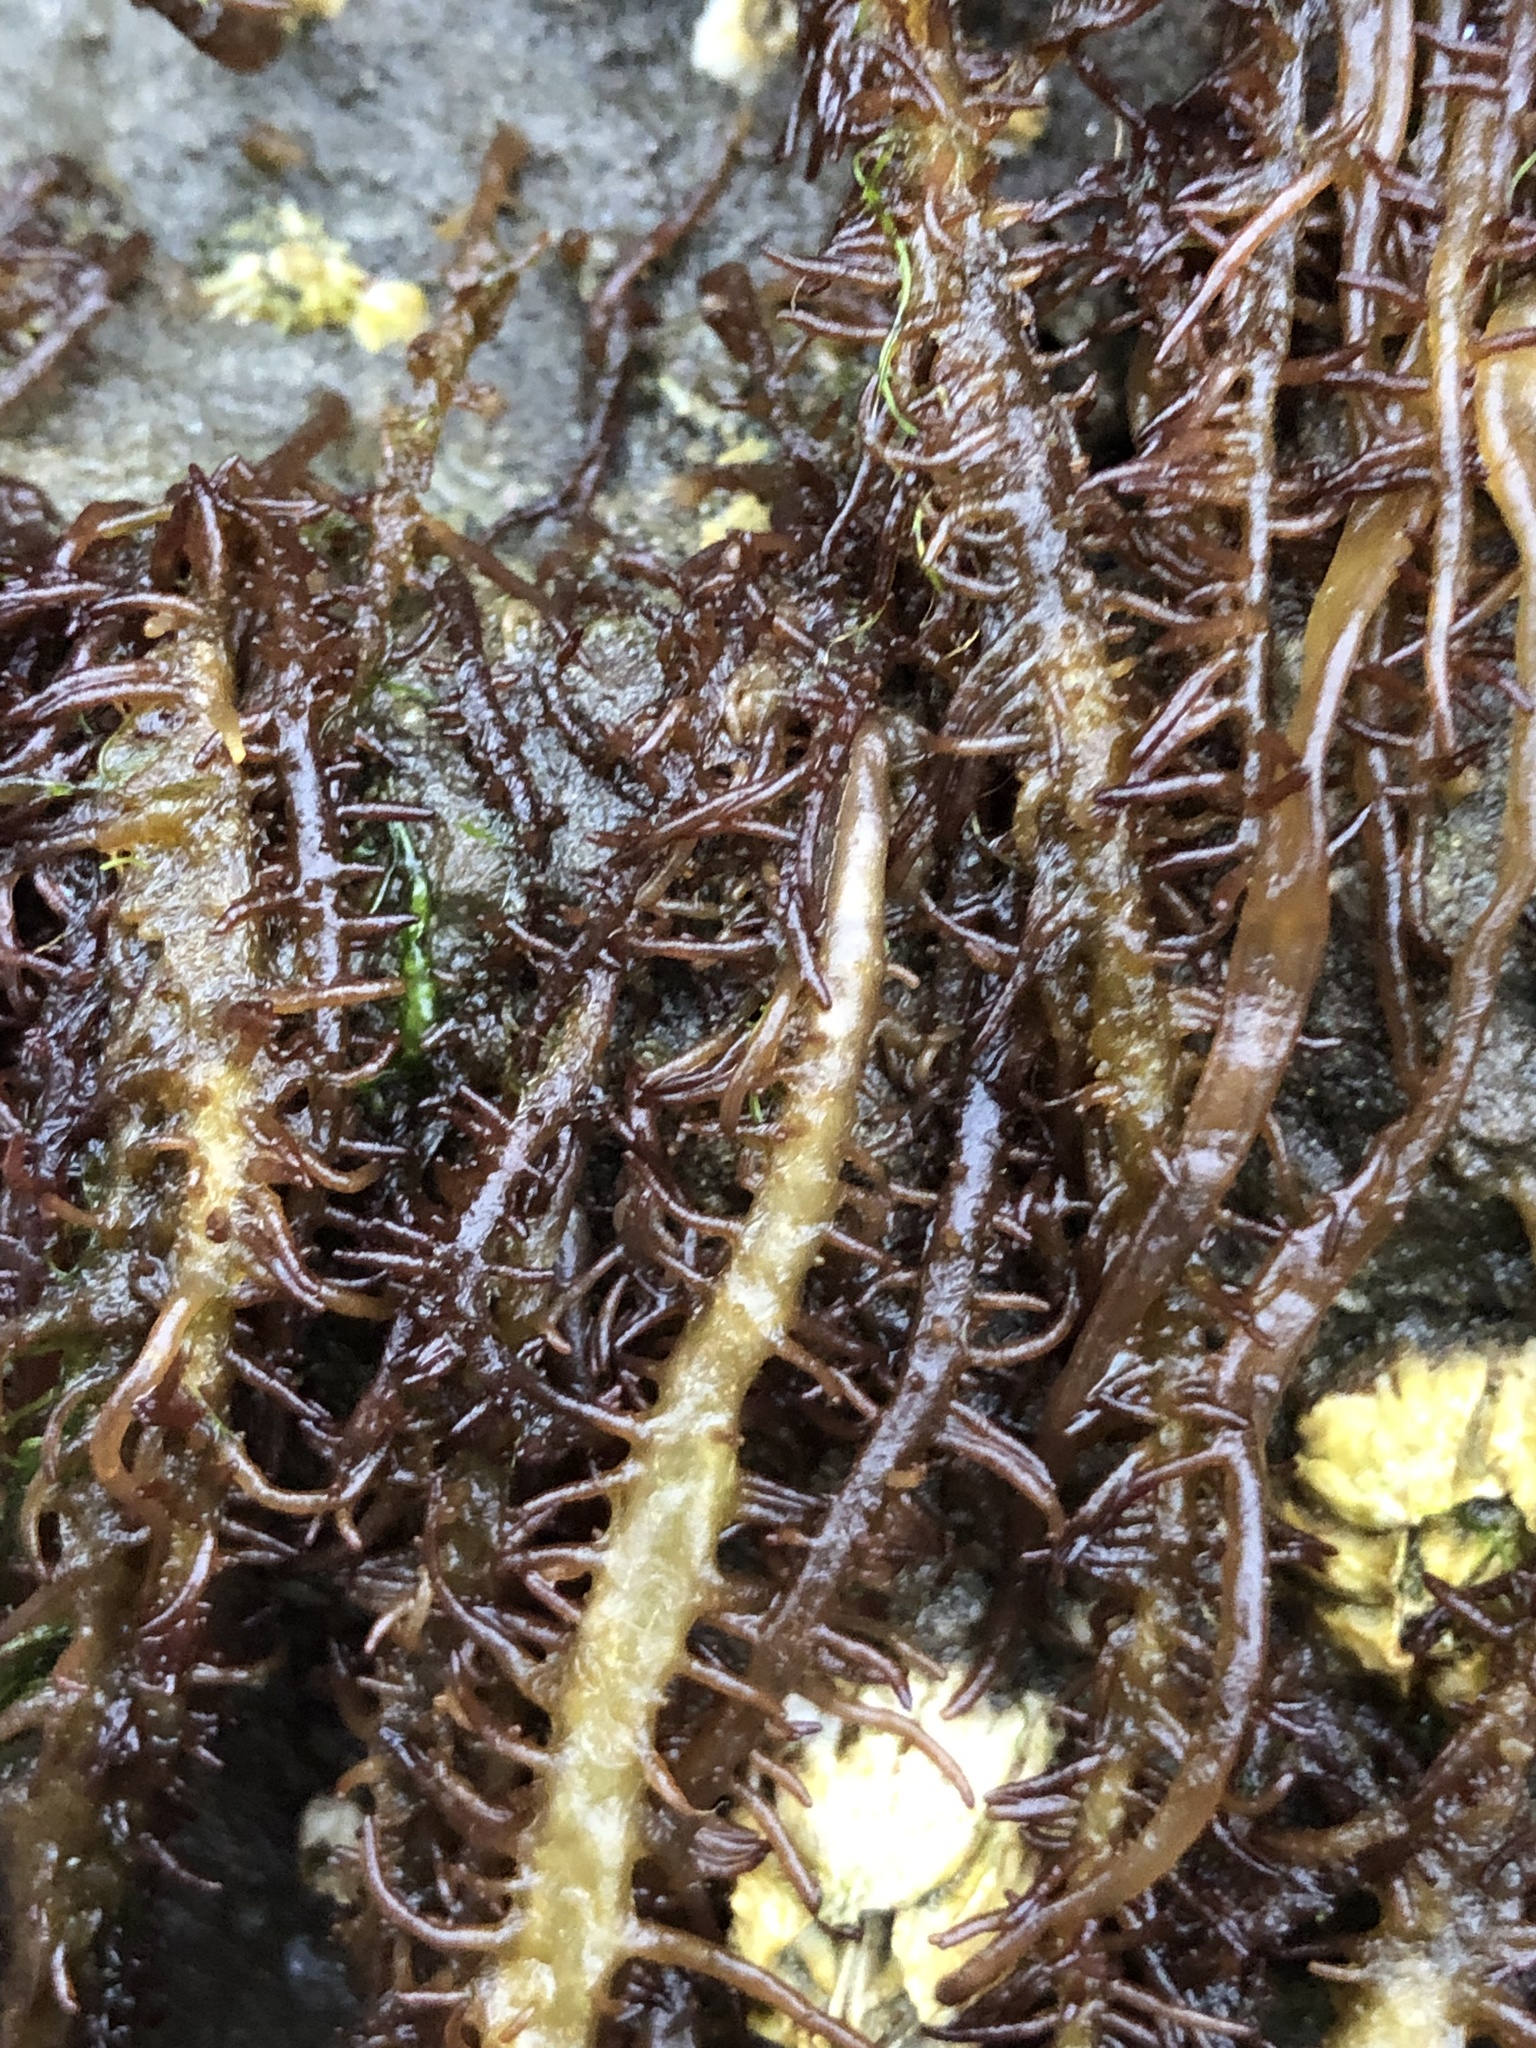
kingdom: Plantae
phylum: Rhodophyta
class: Florideophyceae
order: Nemaliales
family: Liagoraceae
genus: Cumagloia
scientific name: Cumagloia andersonii
